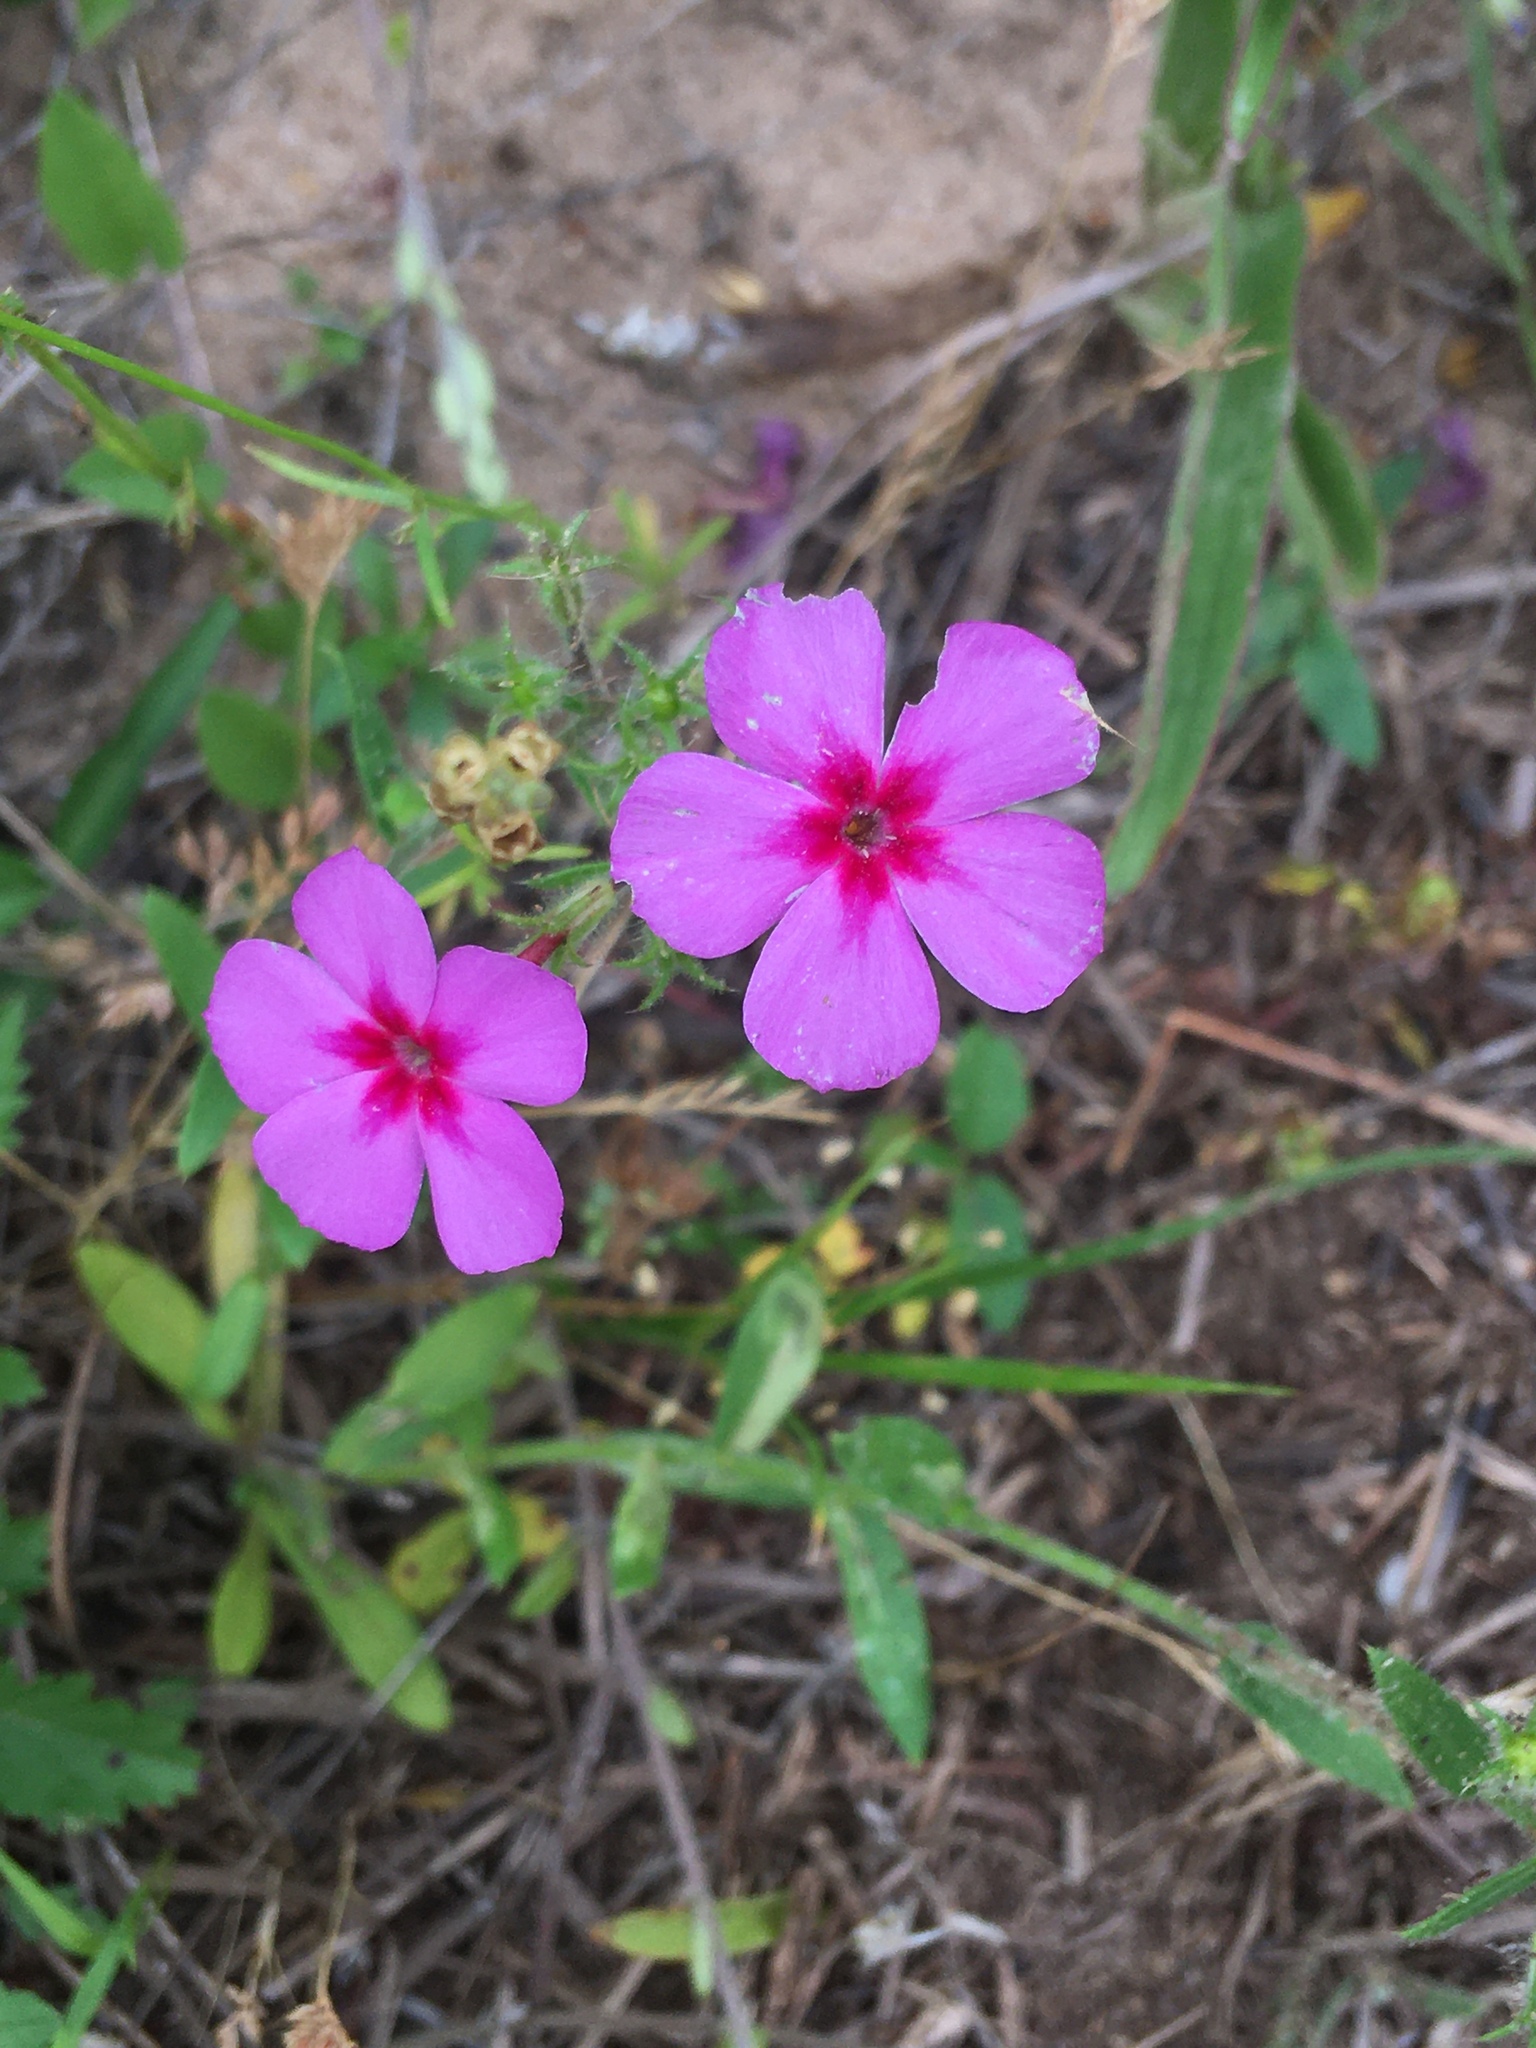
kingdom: Plantae
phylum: Tracheophyta
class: Magnoliopsida
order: Ericales
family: Polemoniaceae
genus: Phlox
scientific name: Phlox drummondii
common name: Drummond's phlox
